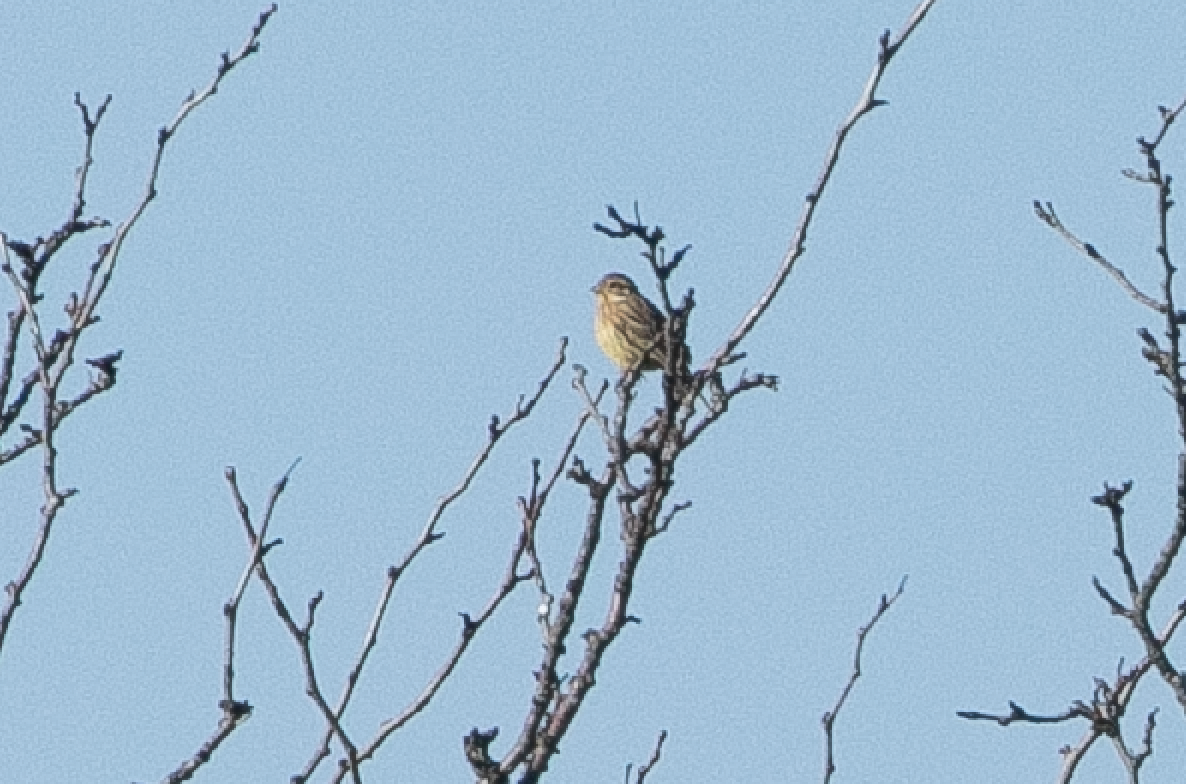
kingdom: Animalia
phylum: Chordata
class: Aves
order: Passeriformes
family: Emberizidae
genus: Emberiza
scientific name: Emberiza cirlus
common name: Cirl bunting
